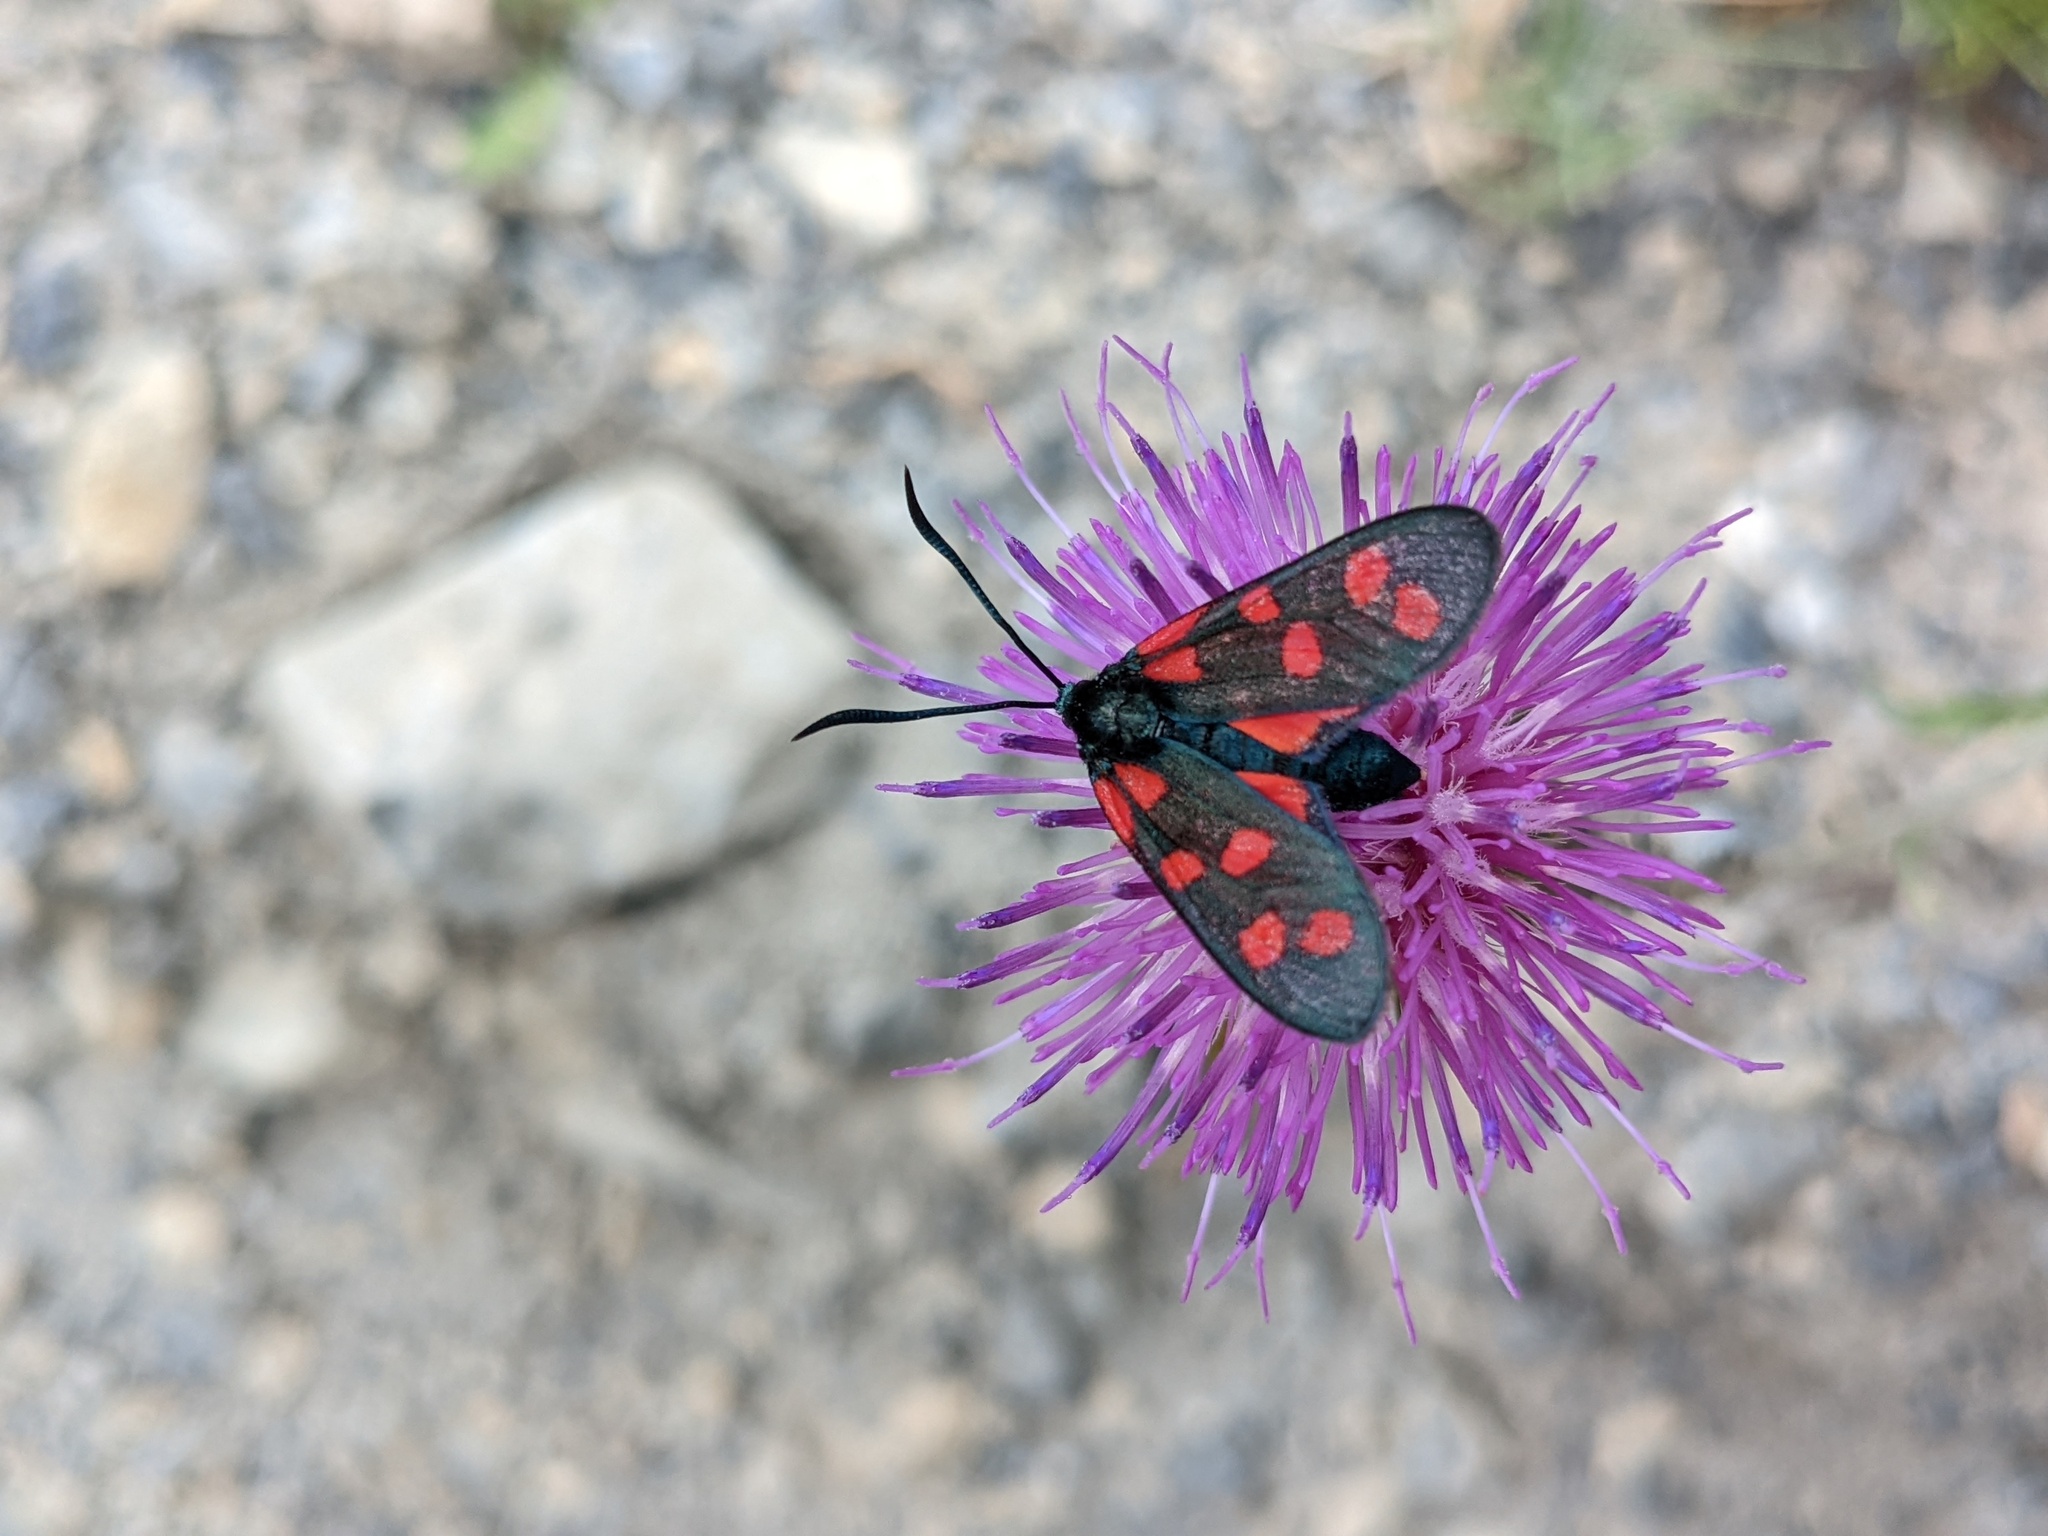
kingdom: Animalia
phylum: Arthropoda
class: Insecta
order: Lepidoptera
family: Zygaenidae
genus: Zygaena
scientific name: Zygaena transalpina
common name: Southern six spot burnet
